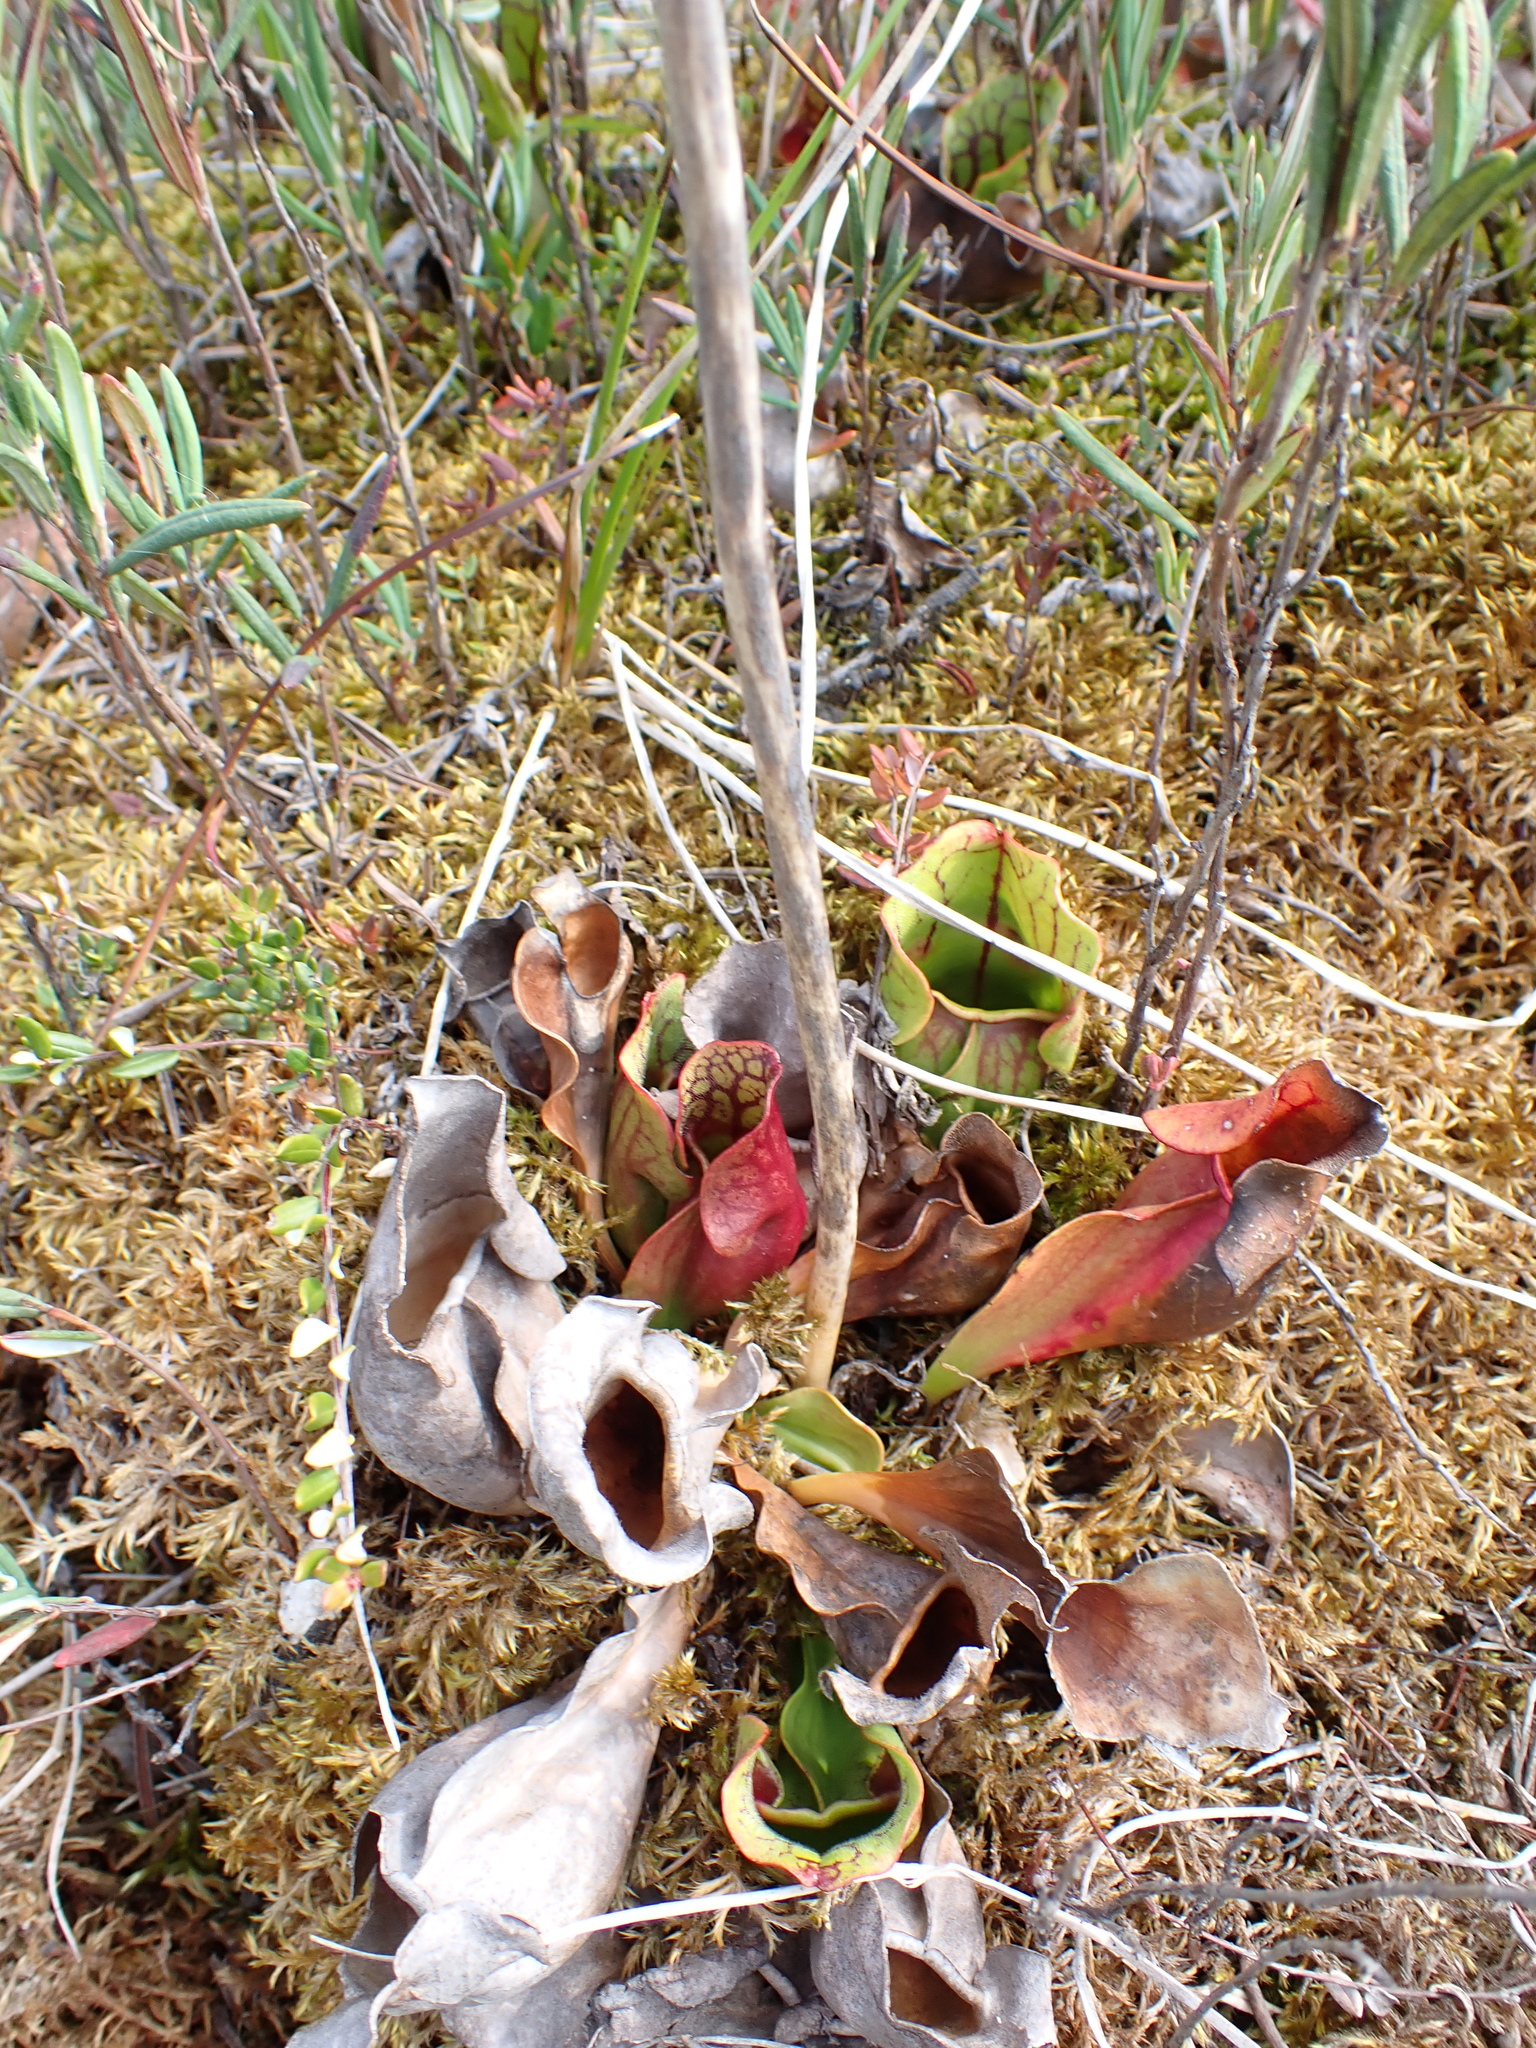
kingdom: Plantae
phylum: Tracheophyta
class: Magnoliopsida
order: Ericales
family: Sarraceniaceae
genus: Sarracenia
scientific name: Sarracenia purpurea
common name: Pitcherplant
